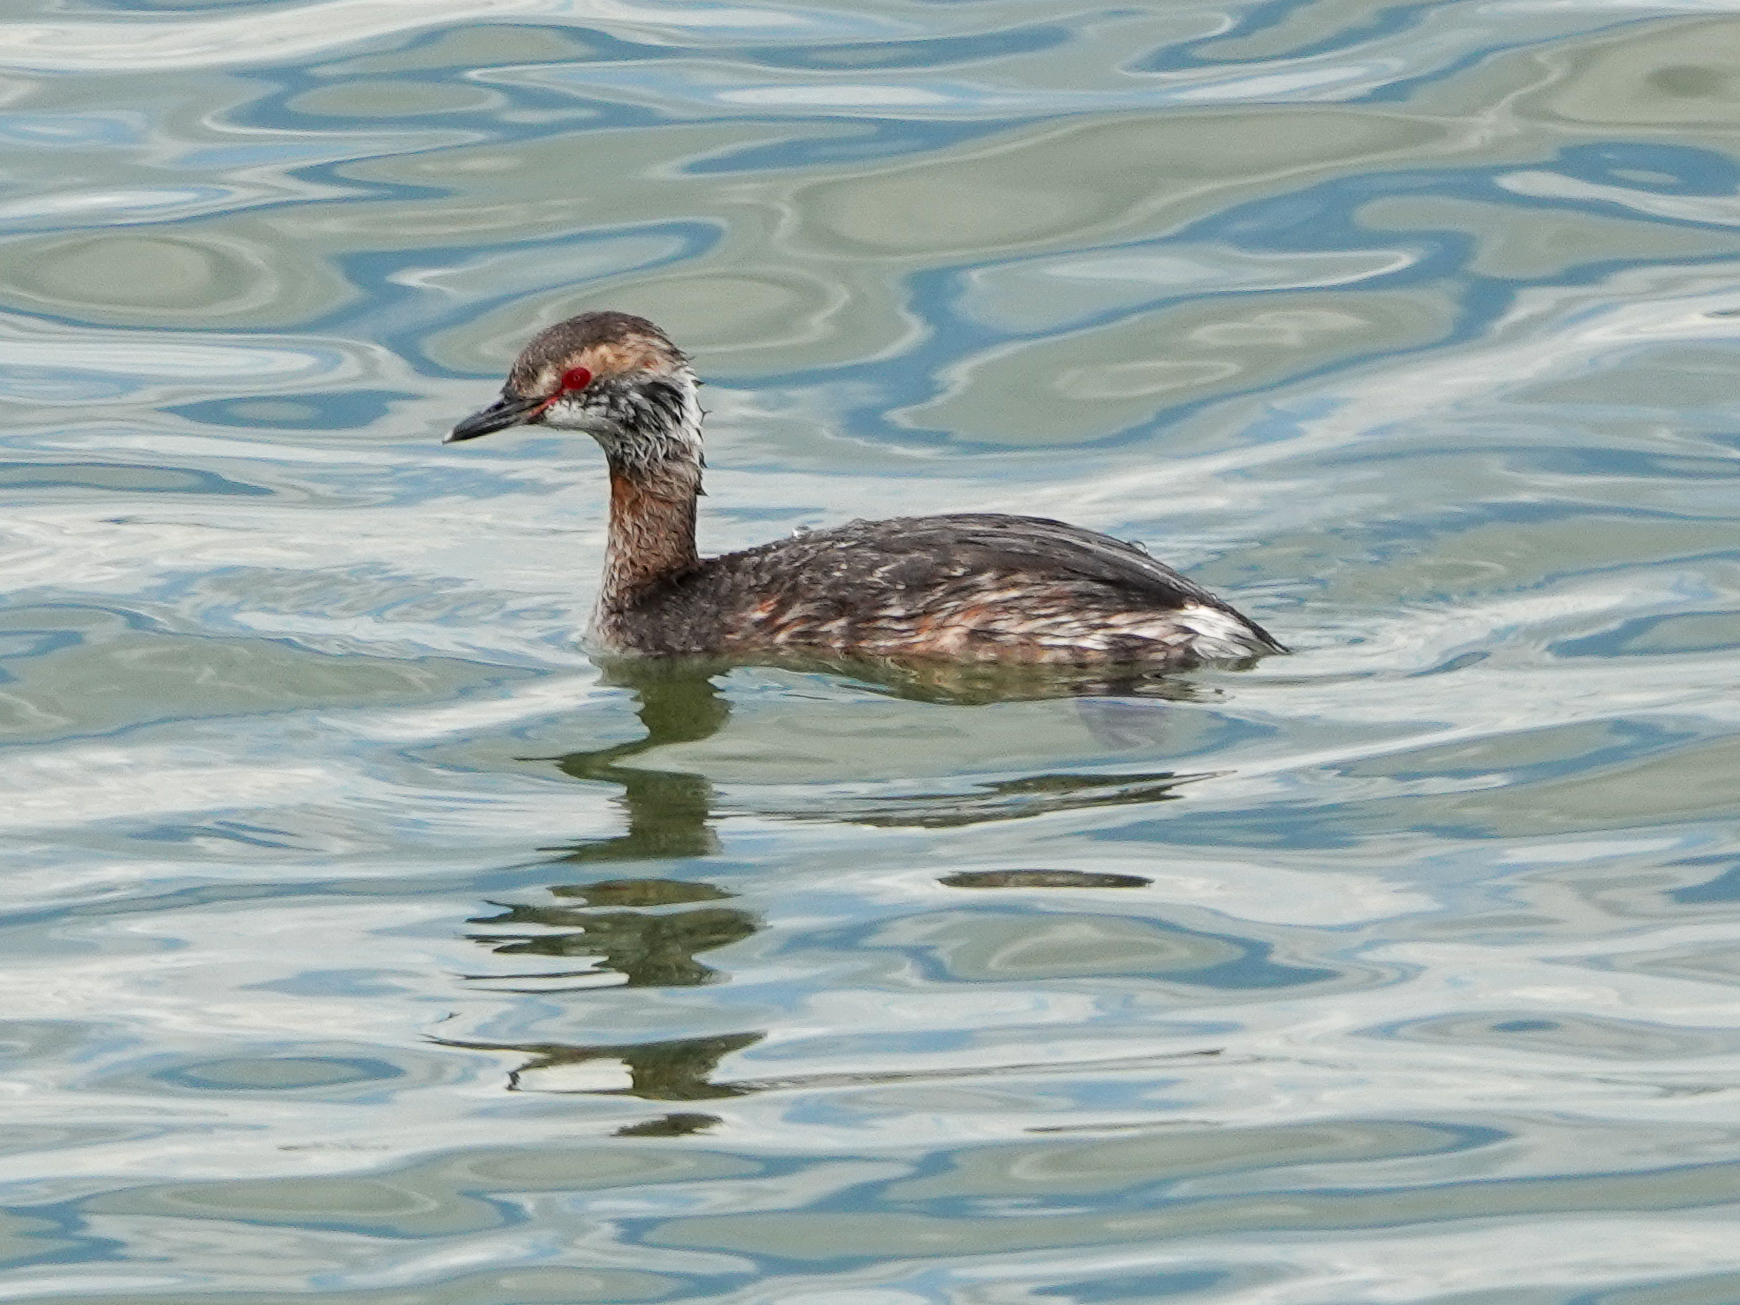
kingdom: Animalia
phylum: Chordata
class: Aves
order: Podicipediformes
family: Podicipedidae
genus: Podiceps
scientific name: Podiceps auritus
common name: Horned grebe
